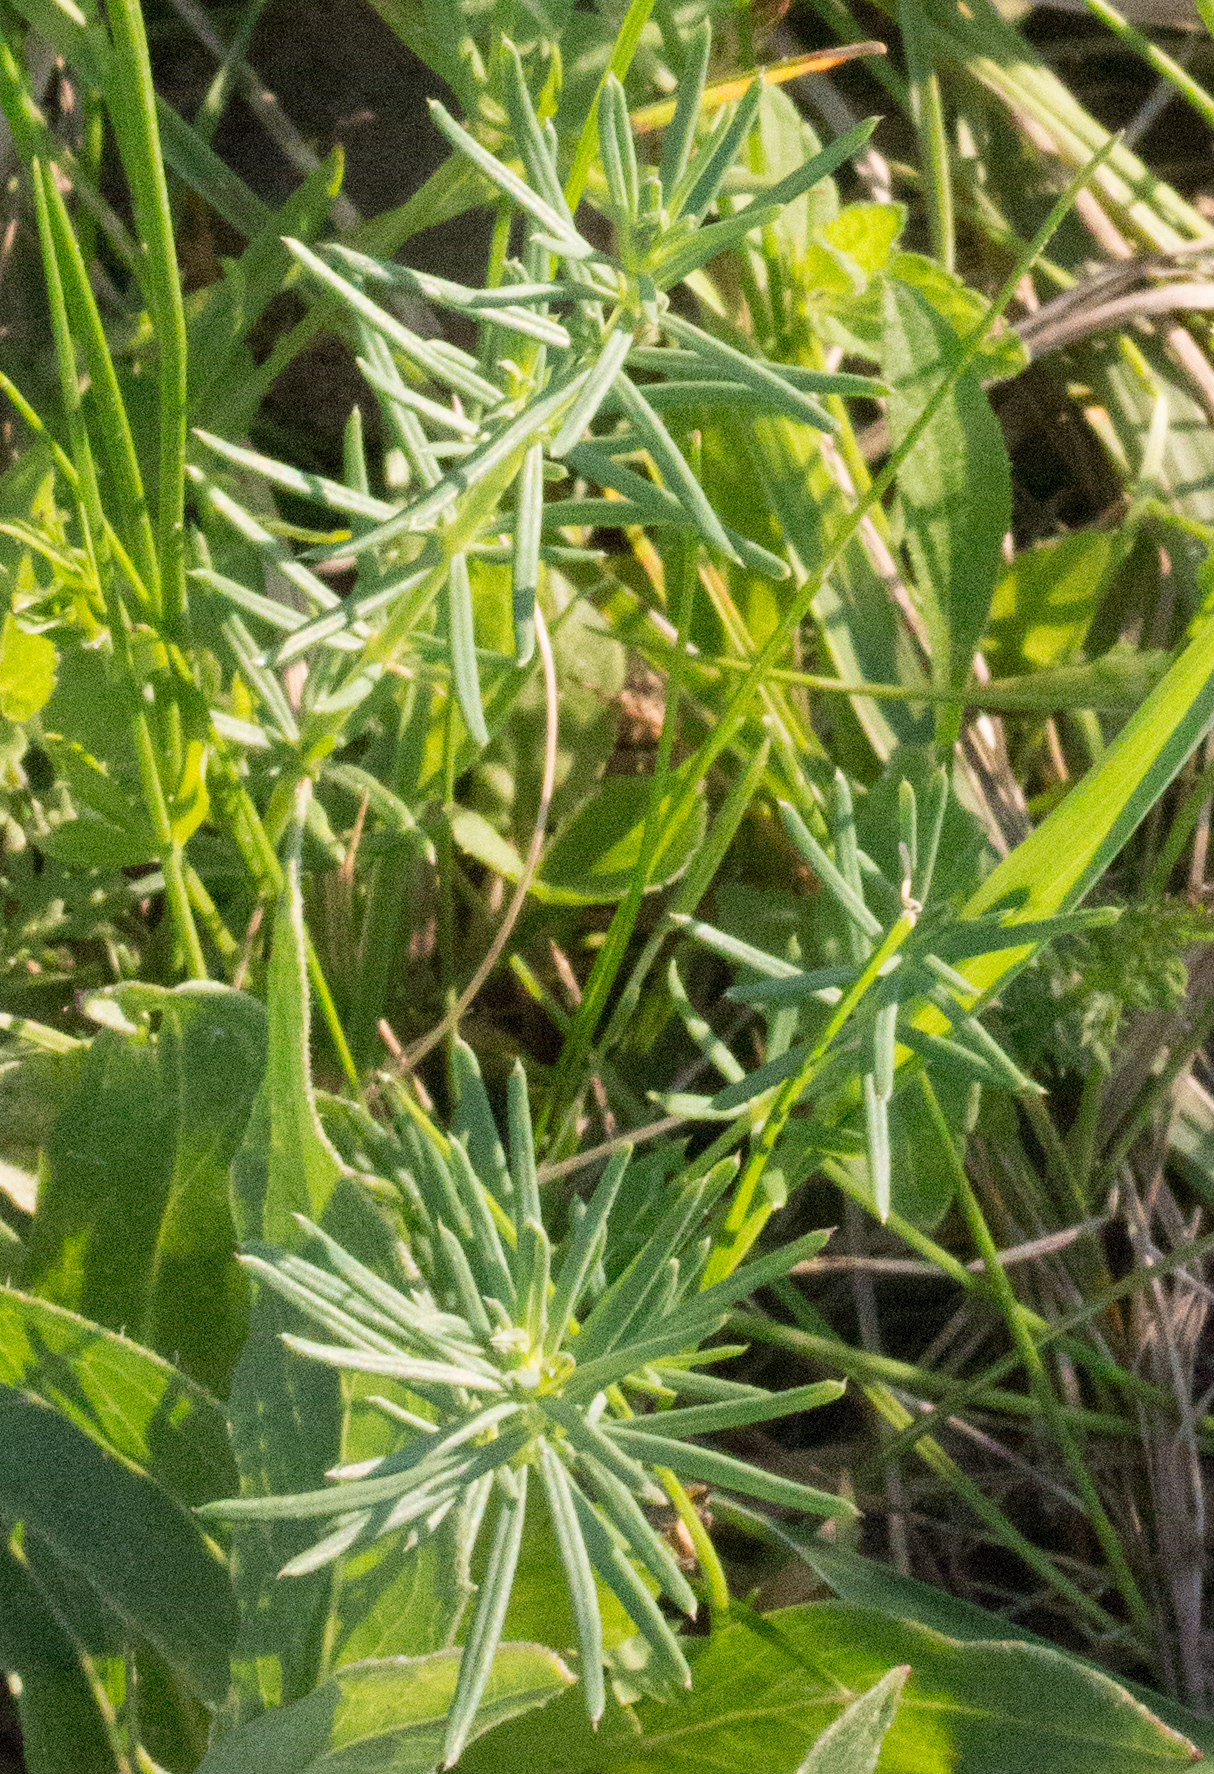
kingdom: Plantae
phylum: Tracheophyta
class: Magnoliopsida
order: Gentianales
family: Rubiaceae
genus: Galium
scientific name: Galium verum
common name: Lady's bedstraw
